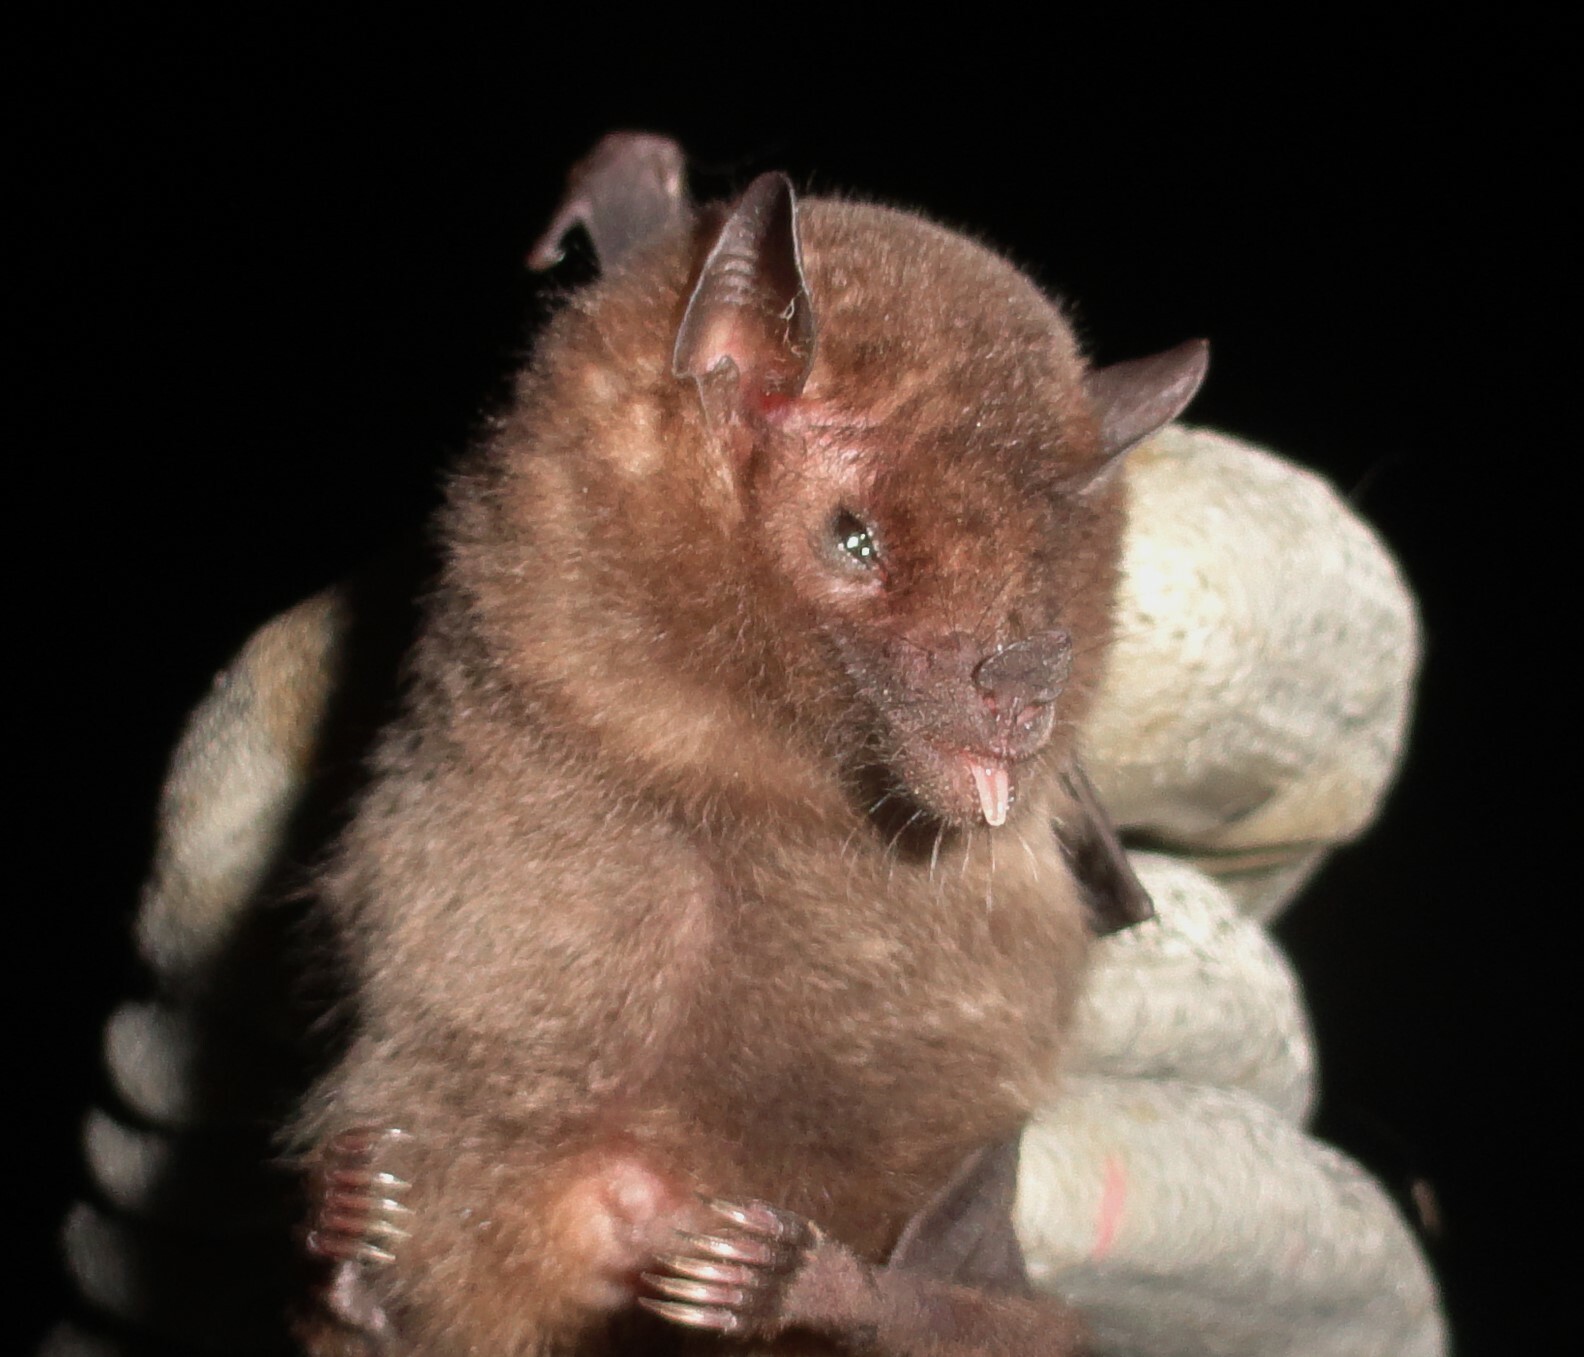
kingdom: Animalia
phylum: Chordata
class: Mammalia
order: Chiroptera
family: Phyllostomidae
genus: Anoura
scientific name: Anoura geoffroyi
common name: Geoffroy's tailless bat
